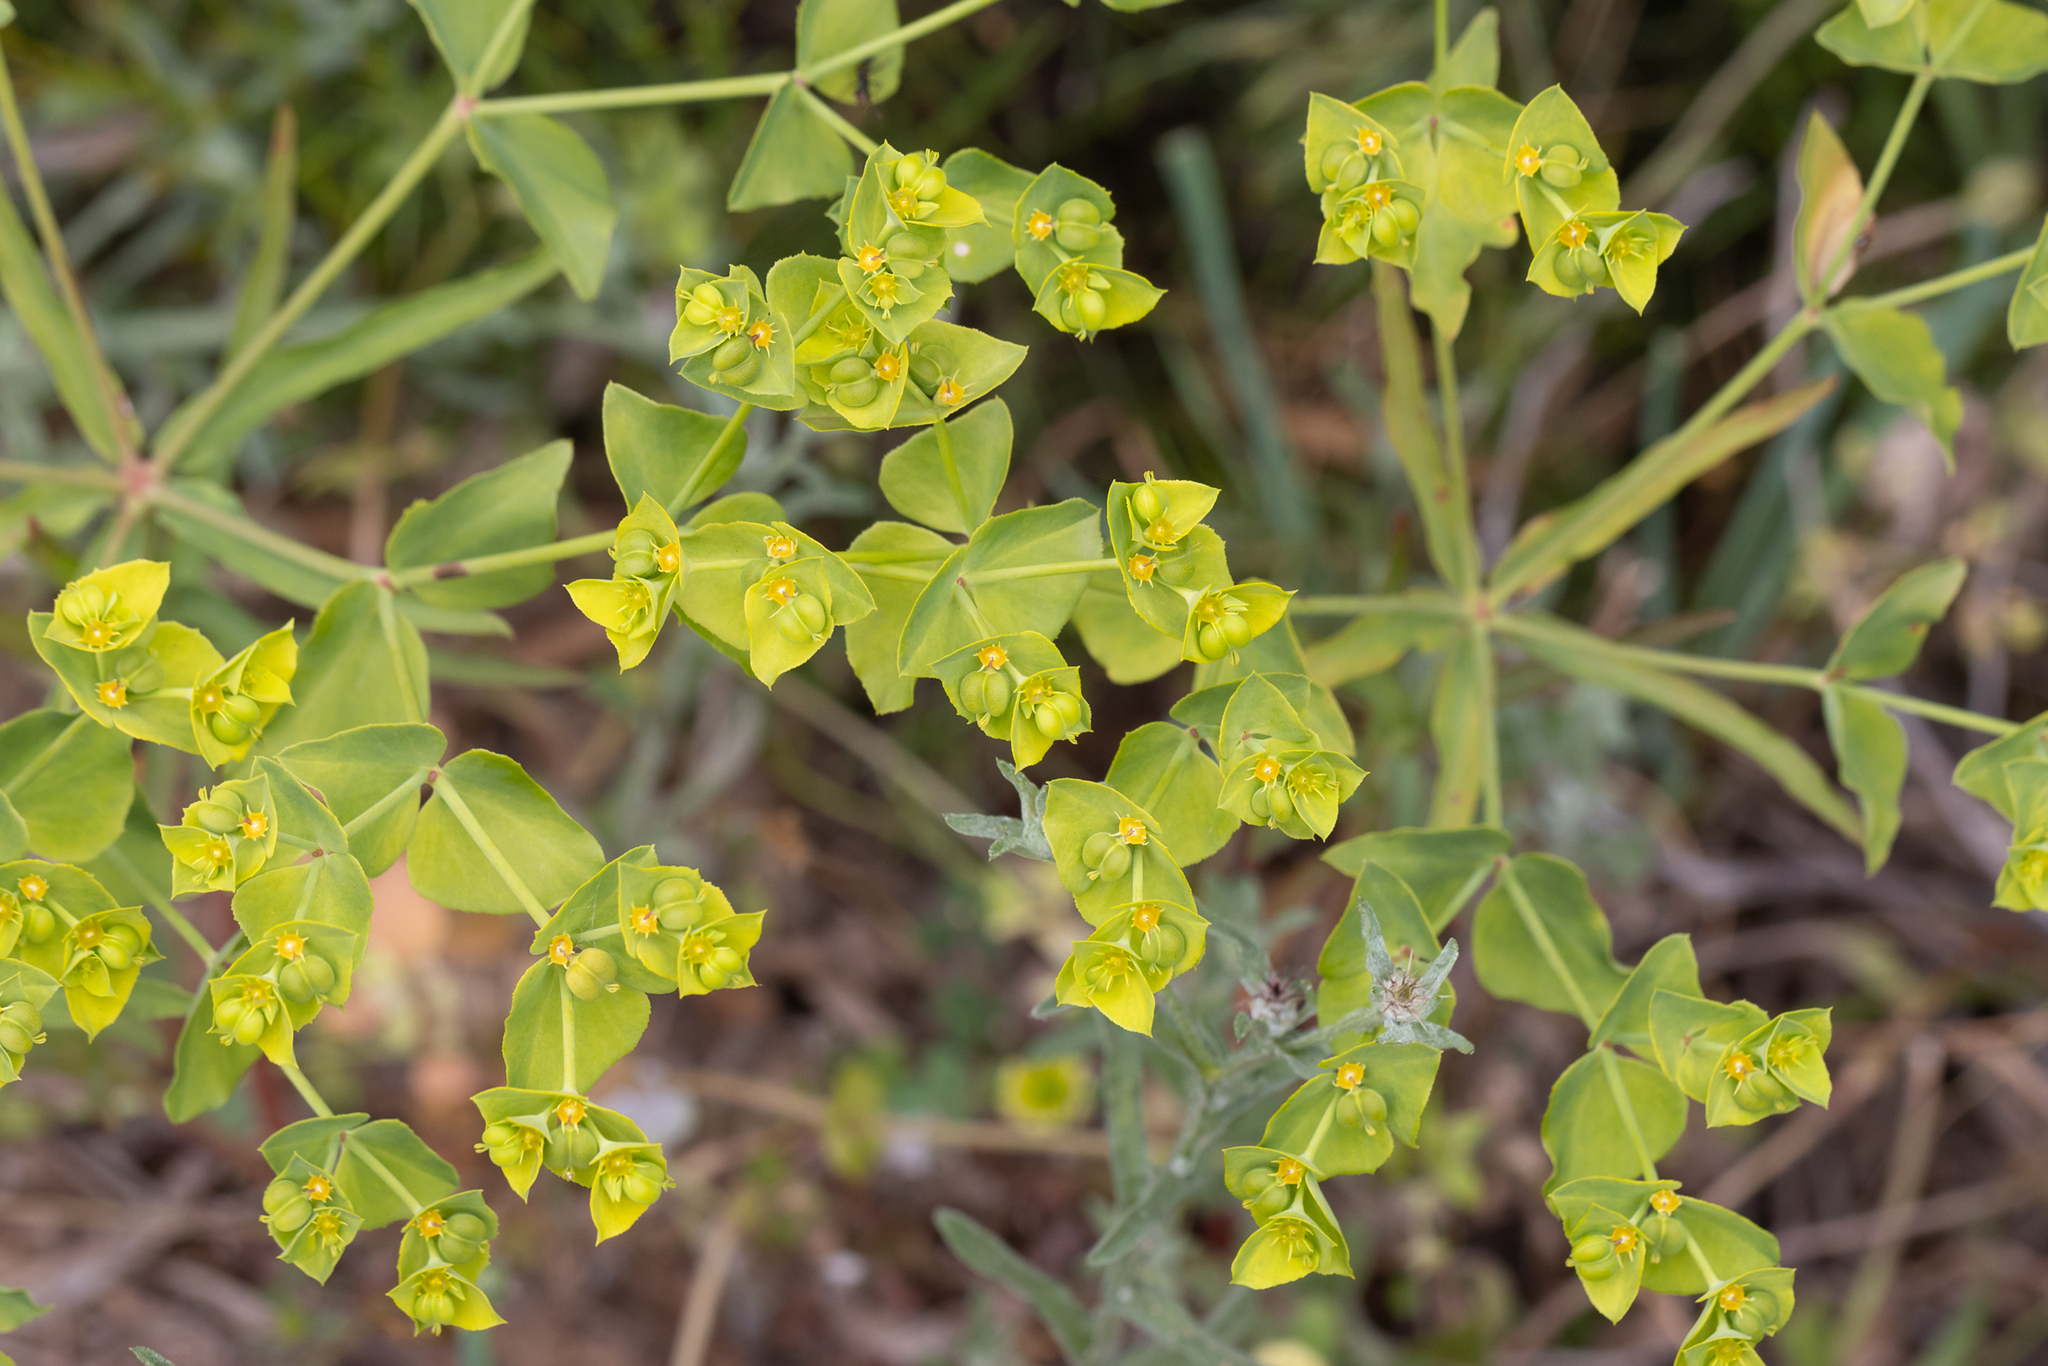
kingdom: Plantae
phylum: Tracheophyta
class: Magnoliopsida
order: Malpighiales
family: Euphorbiaceae
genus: Euphorbia
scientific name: Euphorbia terracina
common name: Geraldton carnation weed
